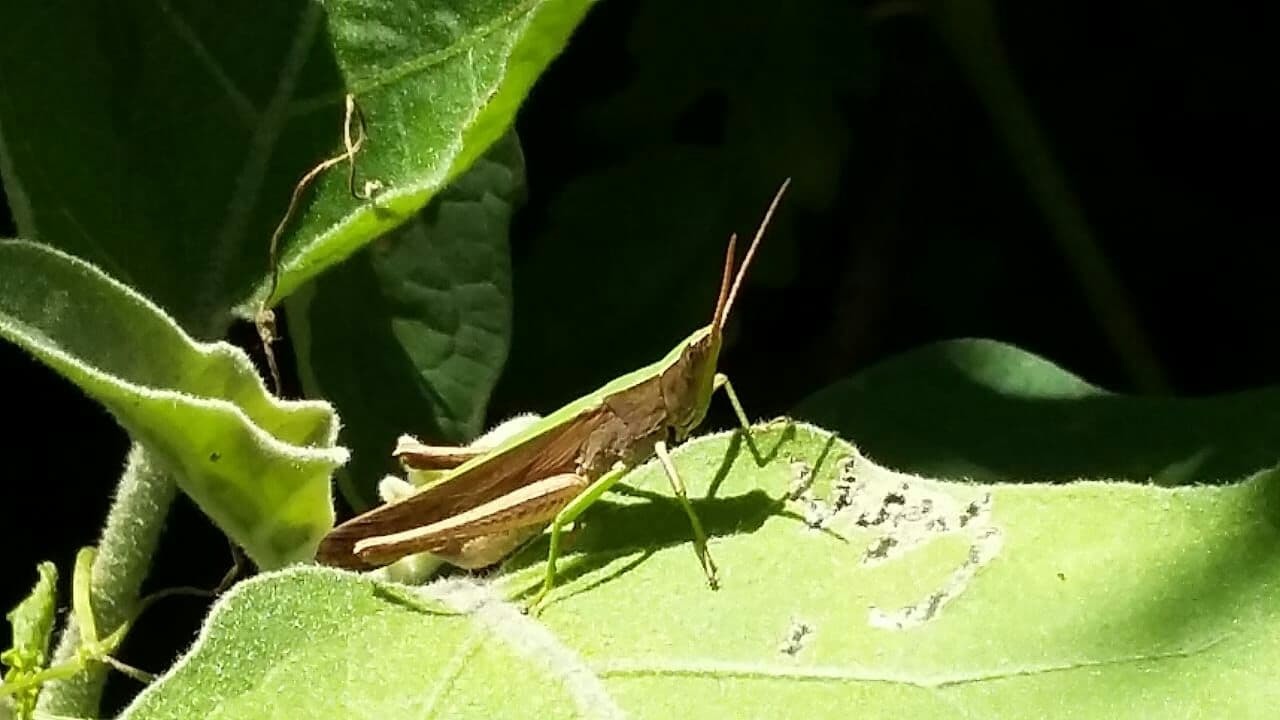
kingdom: Animalia
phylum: Arthropoda
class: Insecta
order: Orthoptera
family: Acrididae
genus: Metaleptea
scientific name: Metaleptea adspersa
